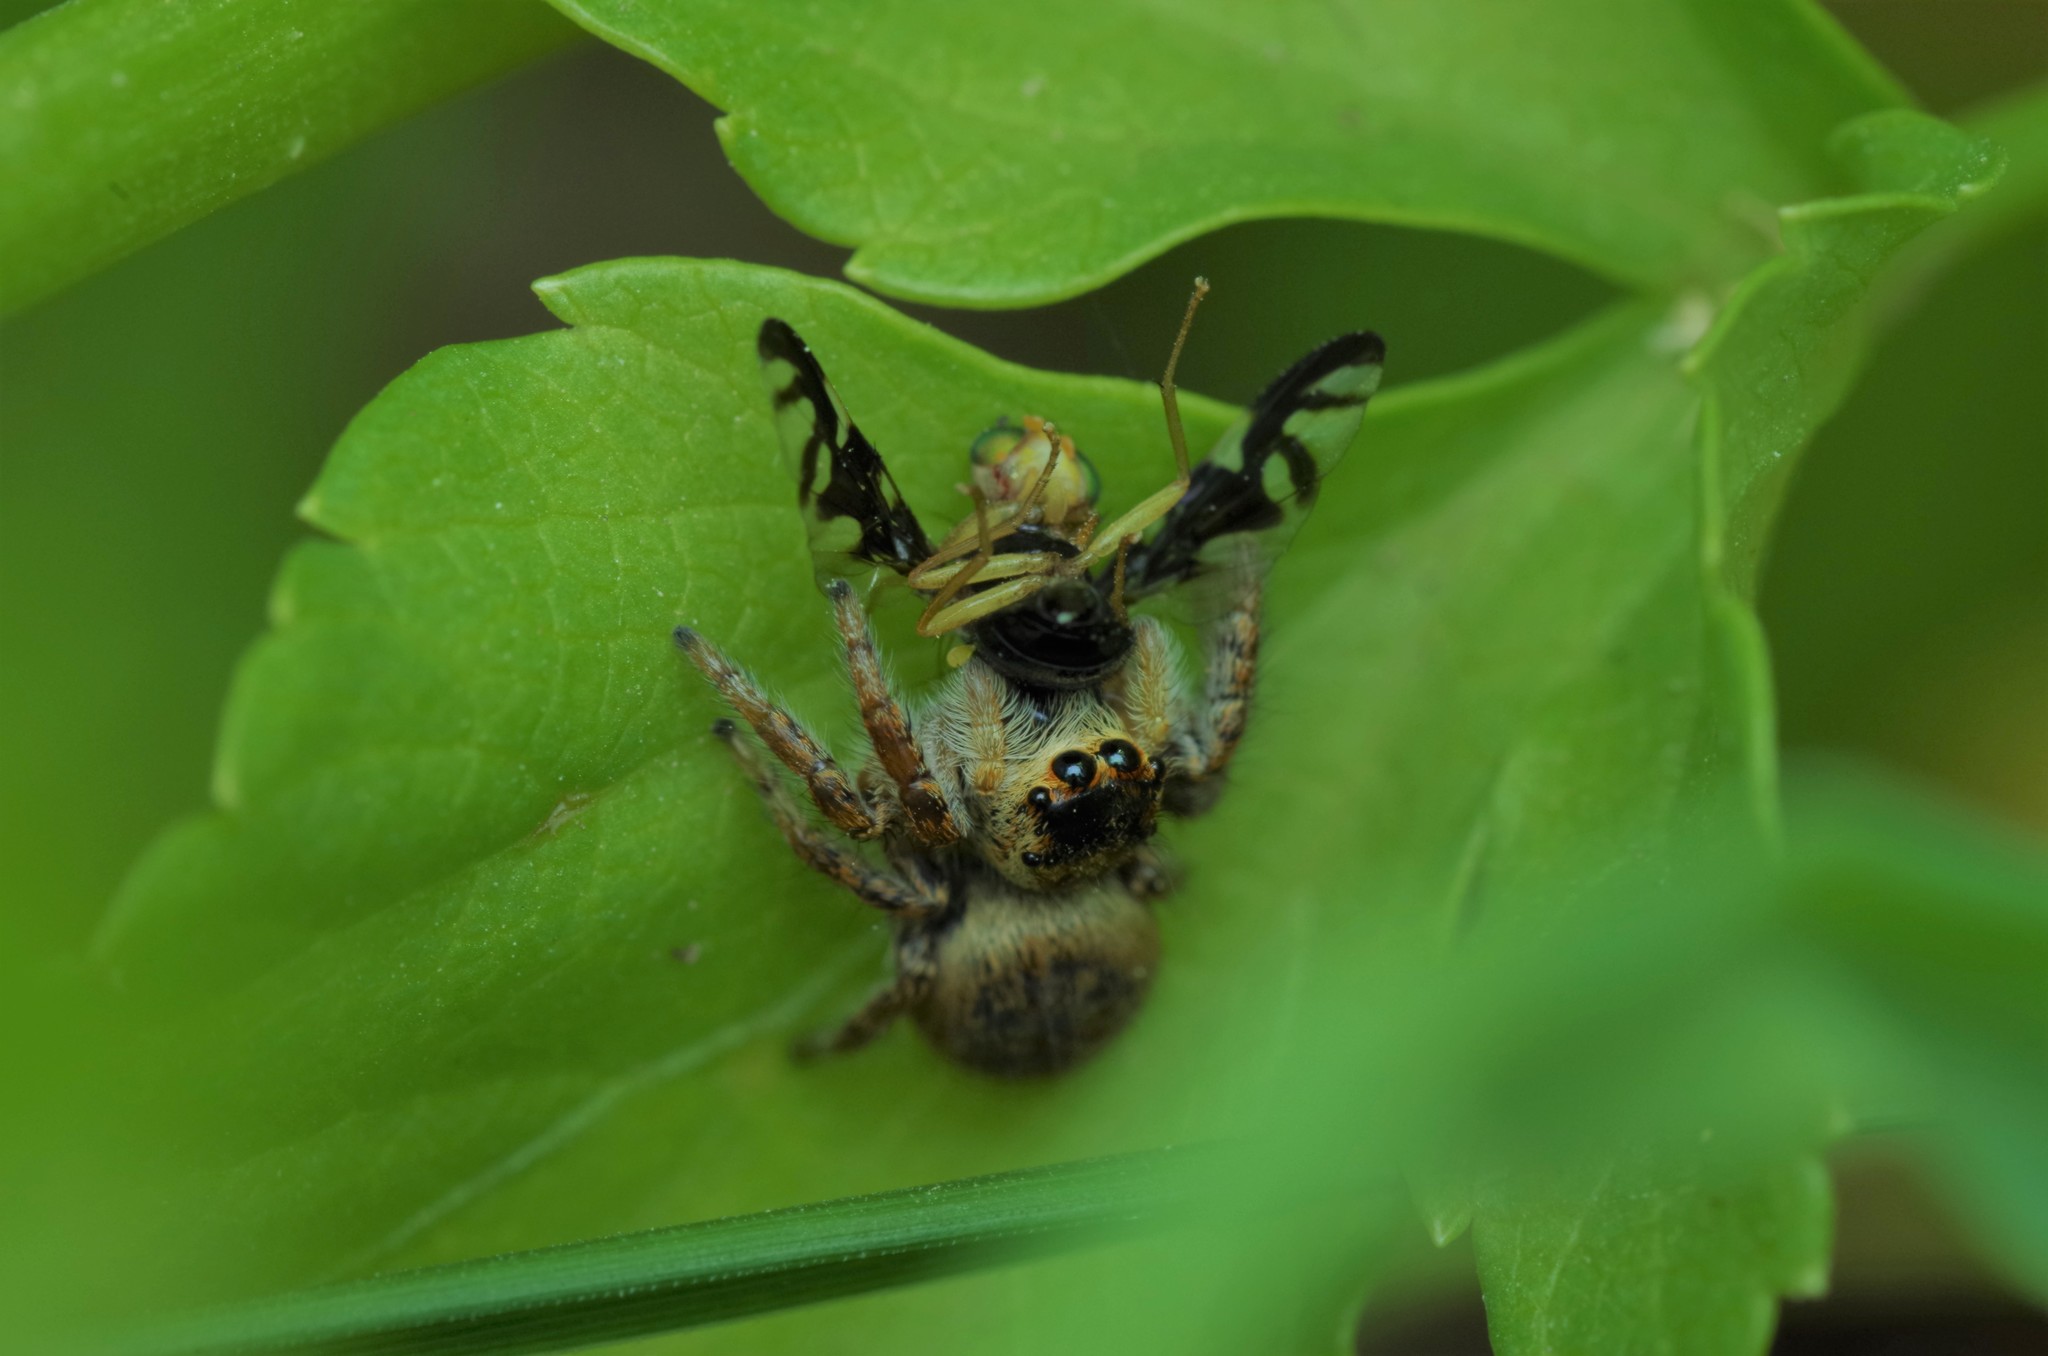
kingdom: Animalia
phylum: Arthropoda
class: Arachnida
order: Araneae
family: Salticidae
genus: Carrhotus
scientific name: Carrhotus xanthogramma
